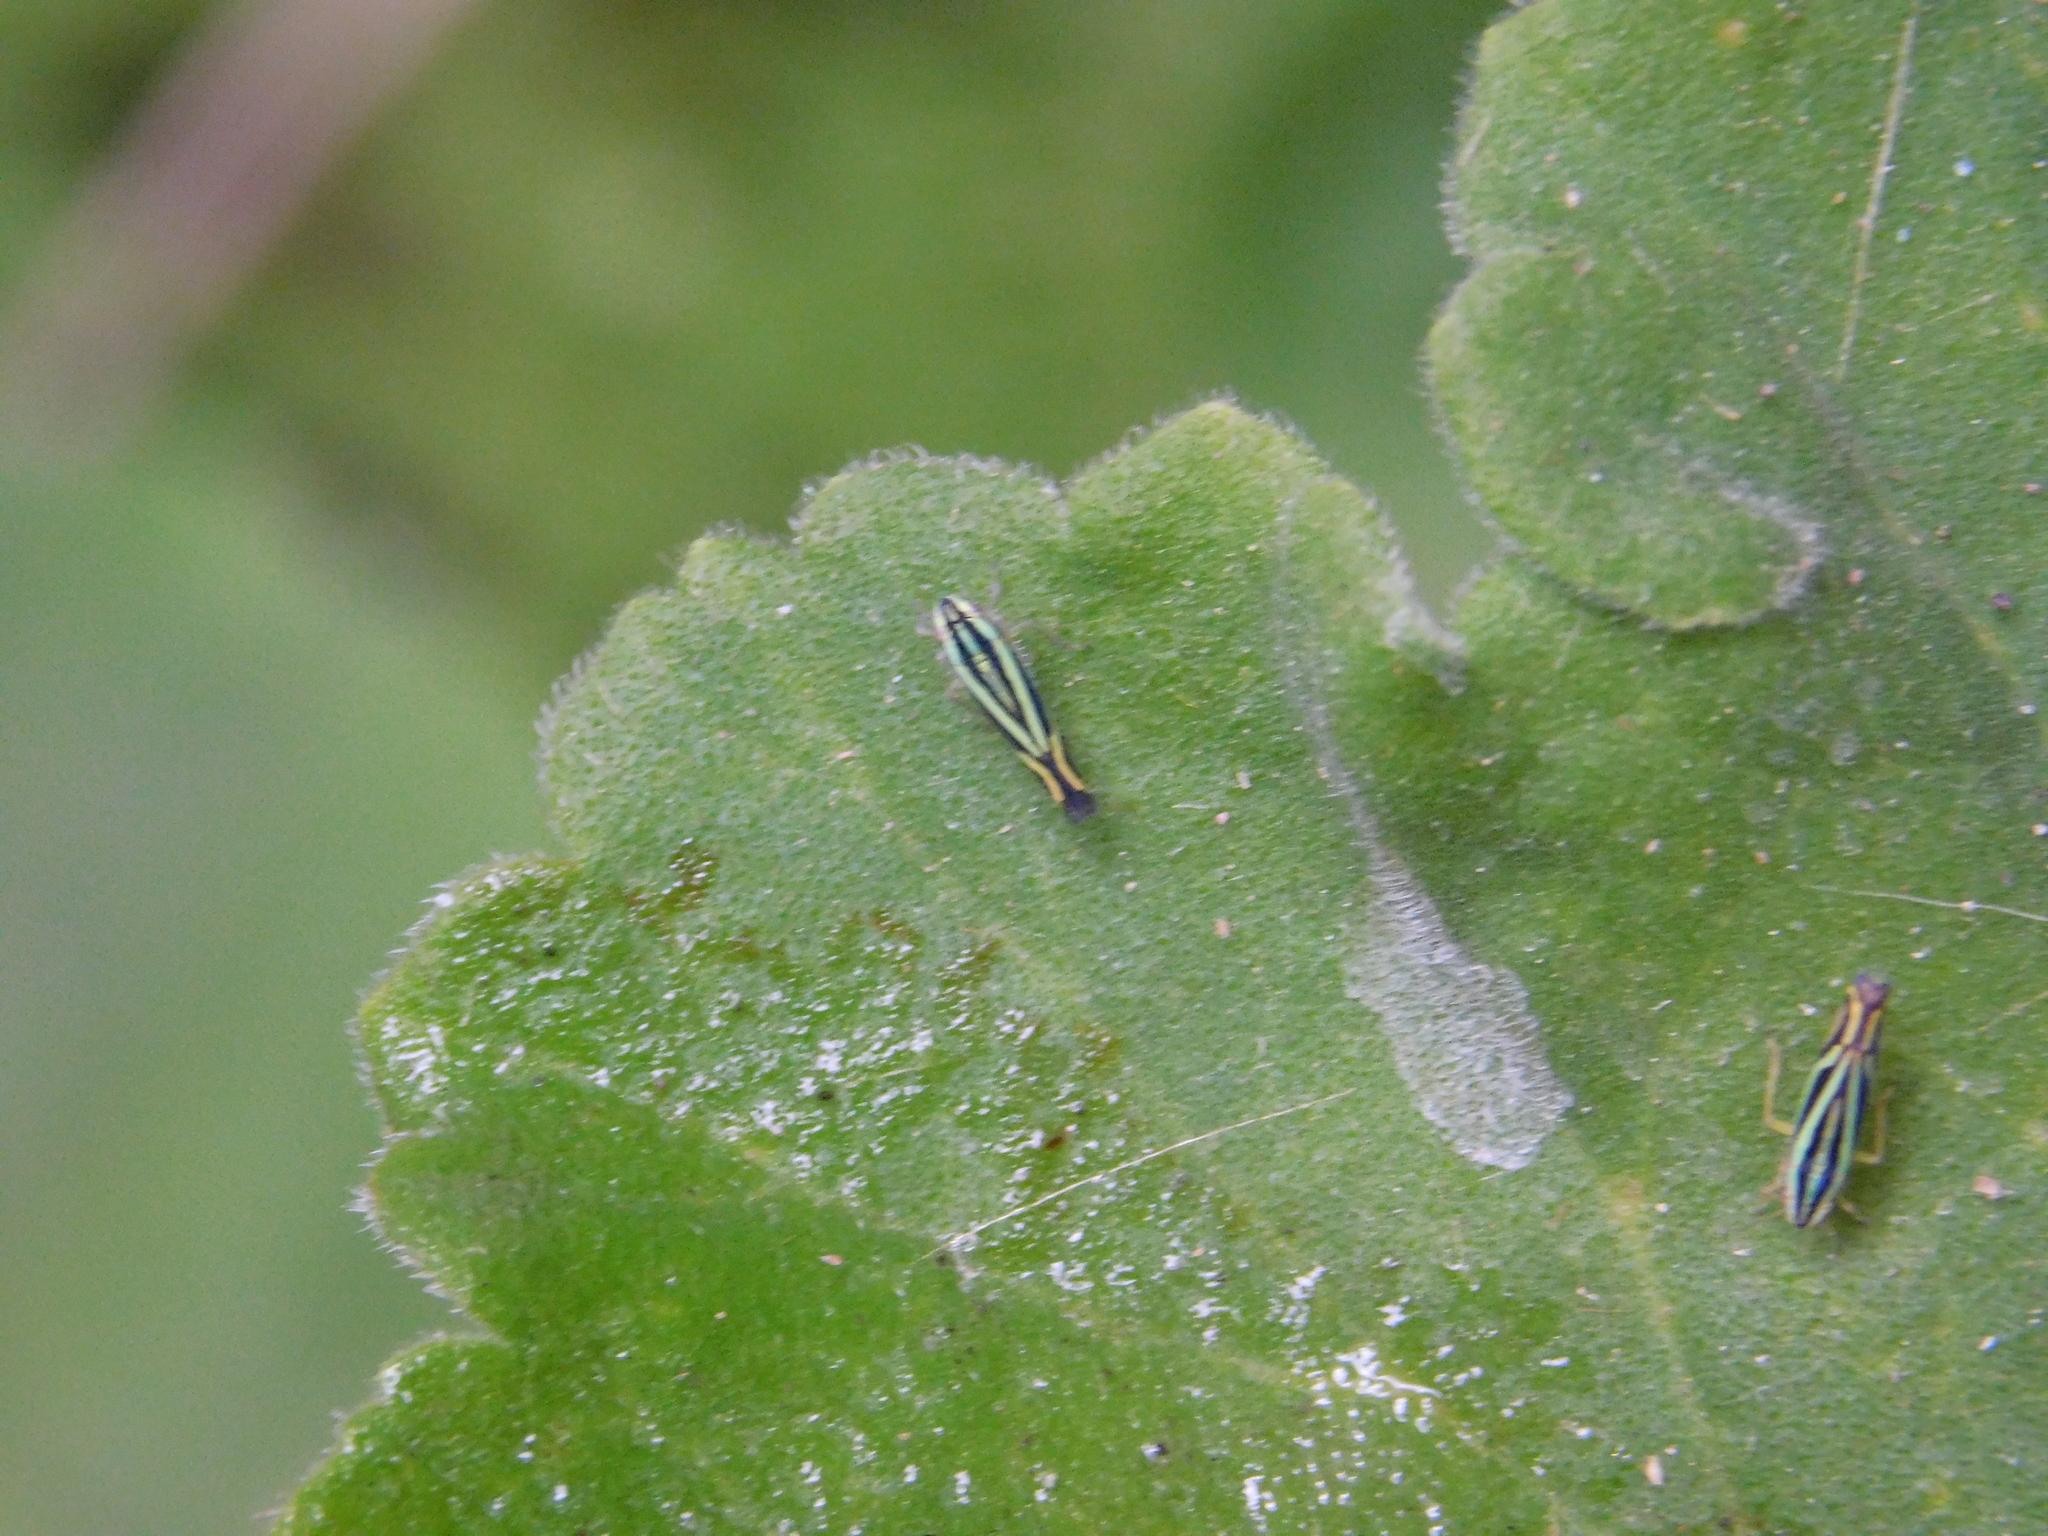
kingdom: Animalia
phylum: Arthropoda
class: Insecta
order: Hemiptera
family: Cicadellidae
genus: Sibovia
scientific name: Sibovia sagata
